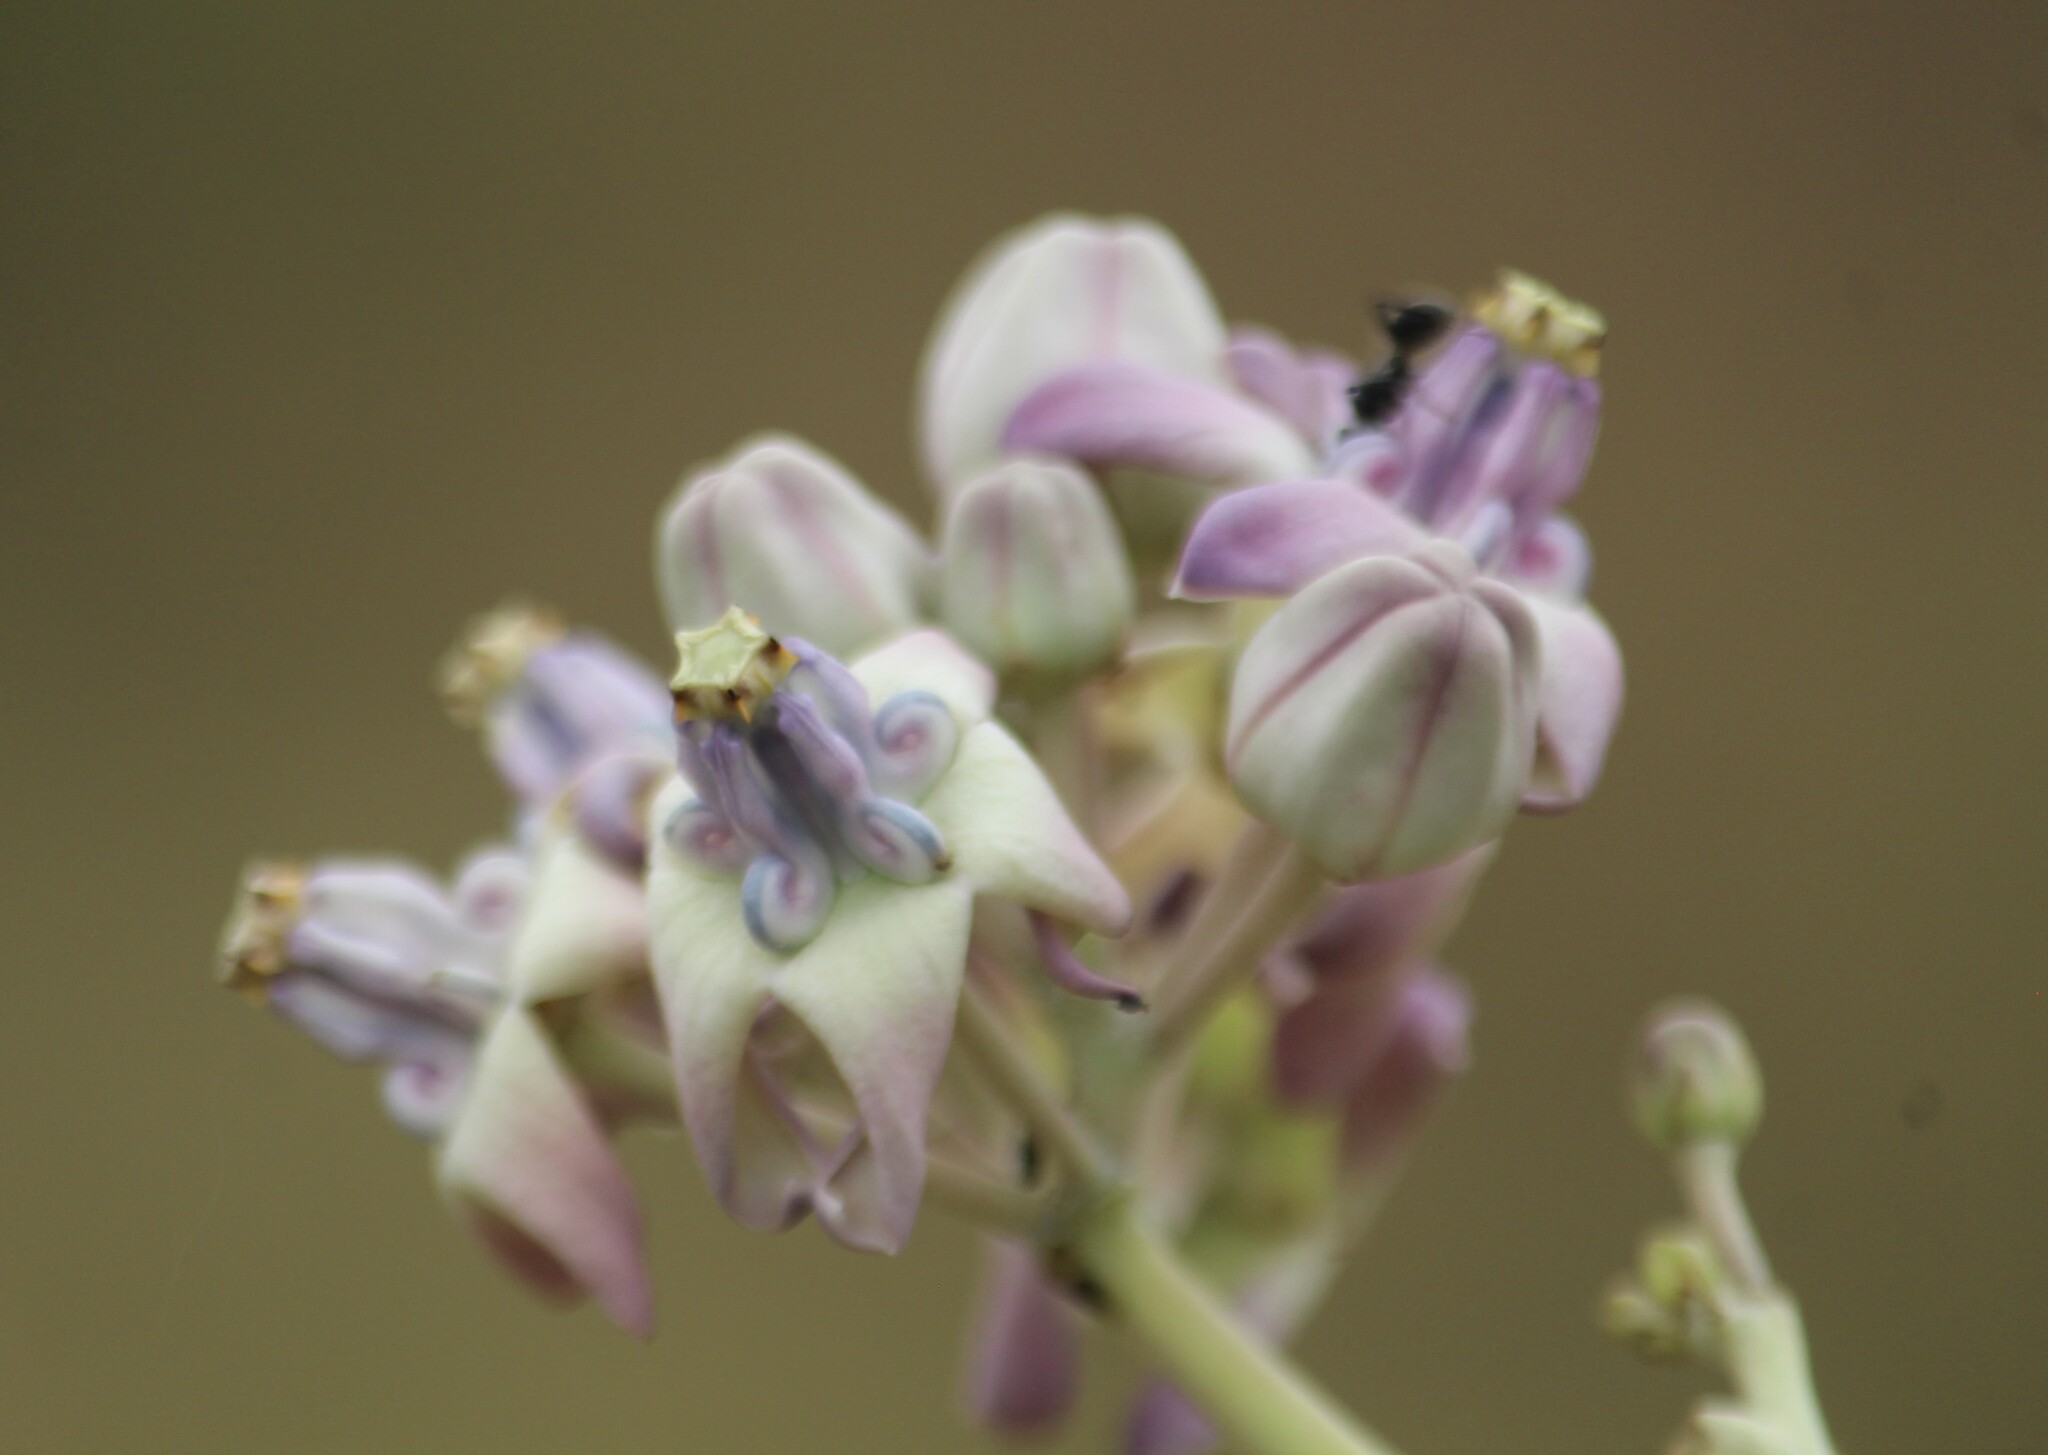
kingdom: Plantae
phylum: Tracheophyta
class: Magnoliopsida
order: Gentianales
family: Apocynaceae
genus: Calotropis
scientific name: Calotropis gigantea
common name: Crown flower
